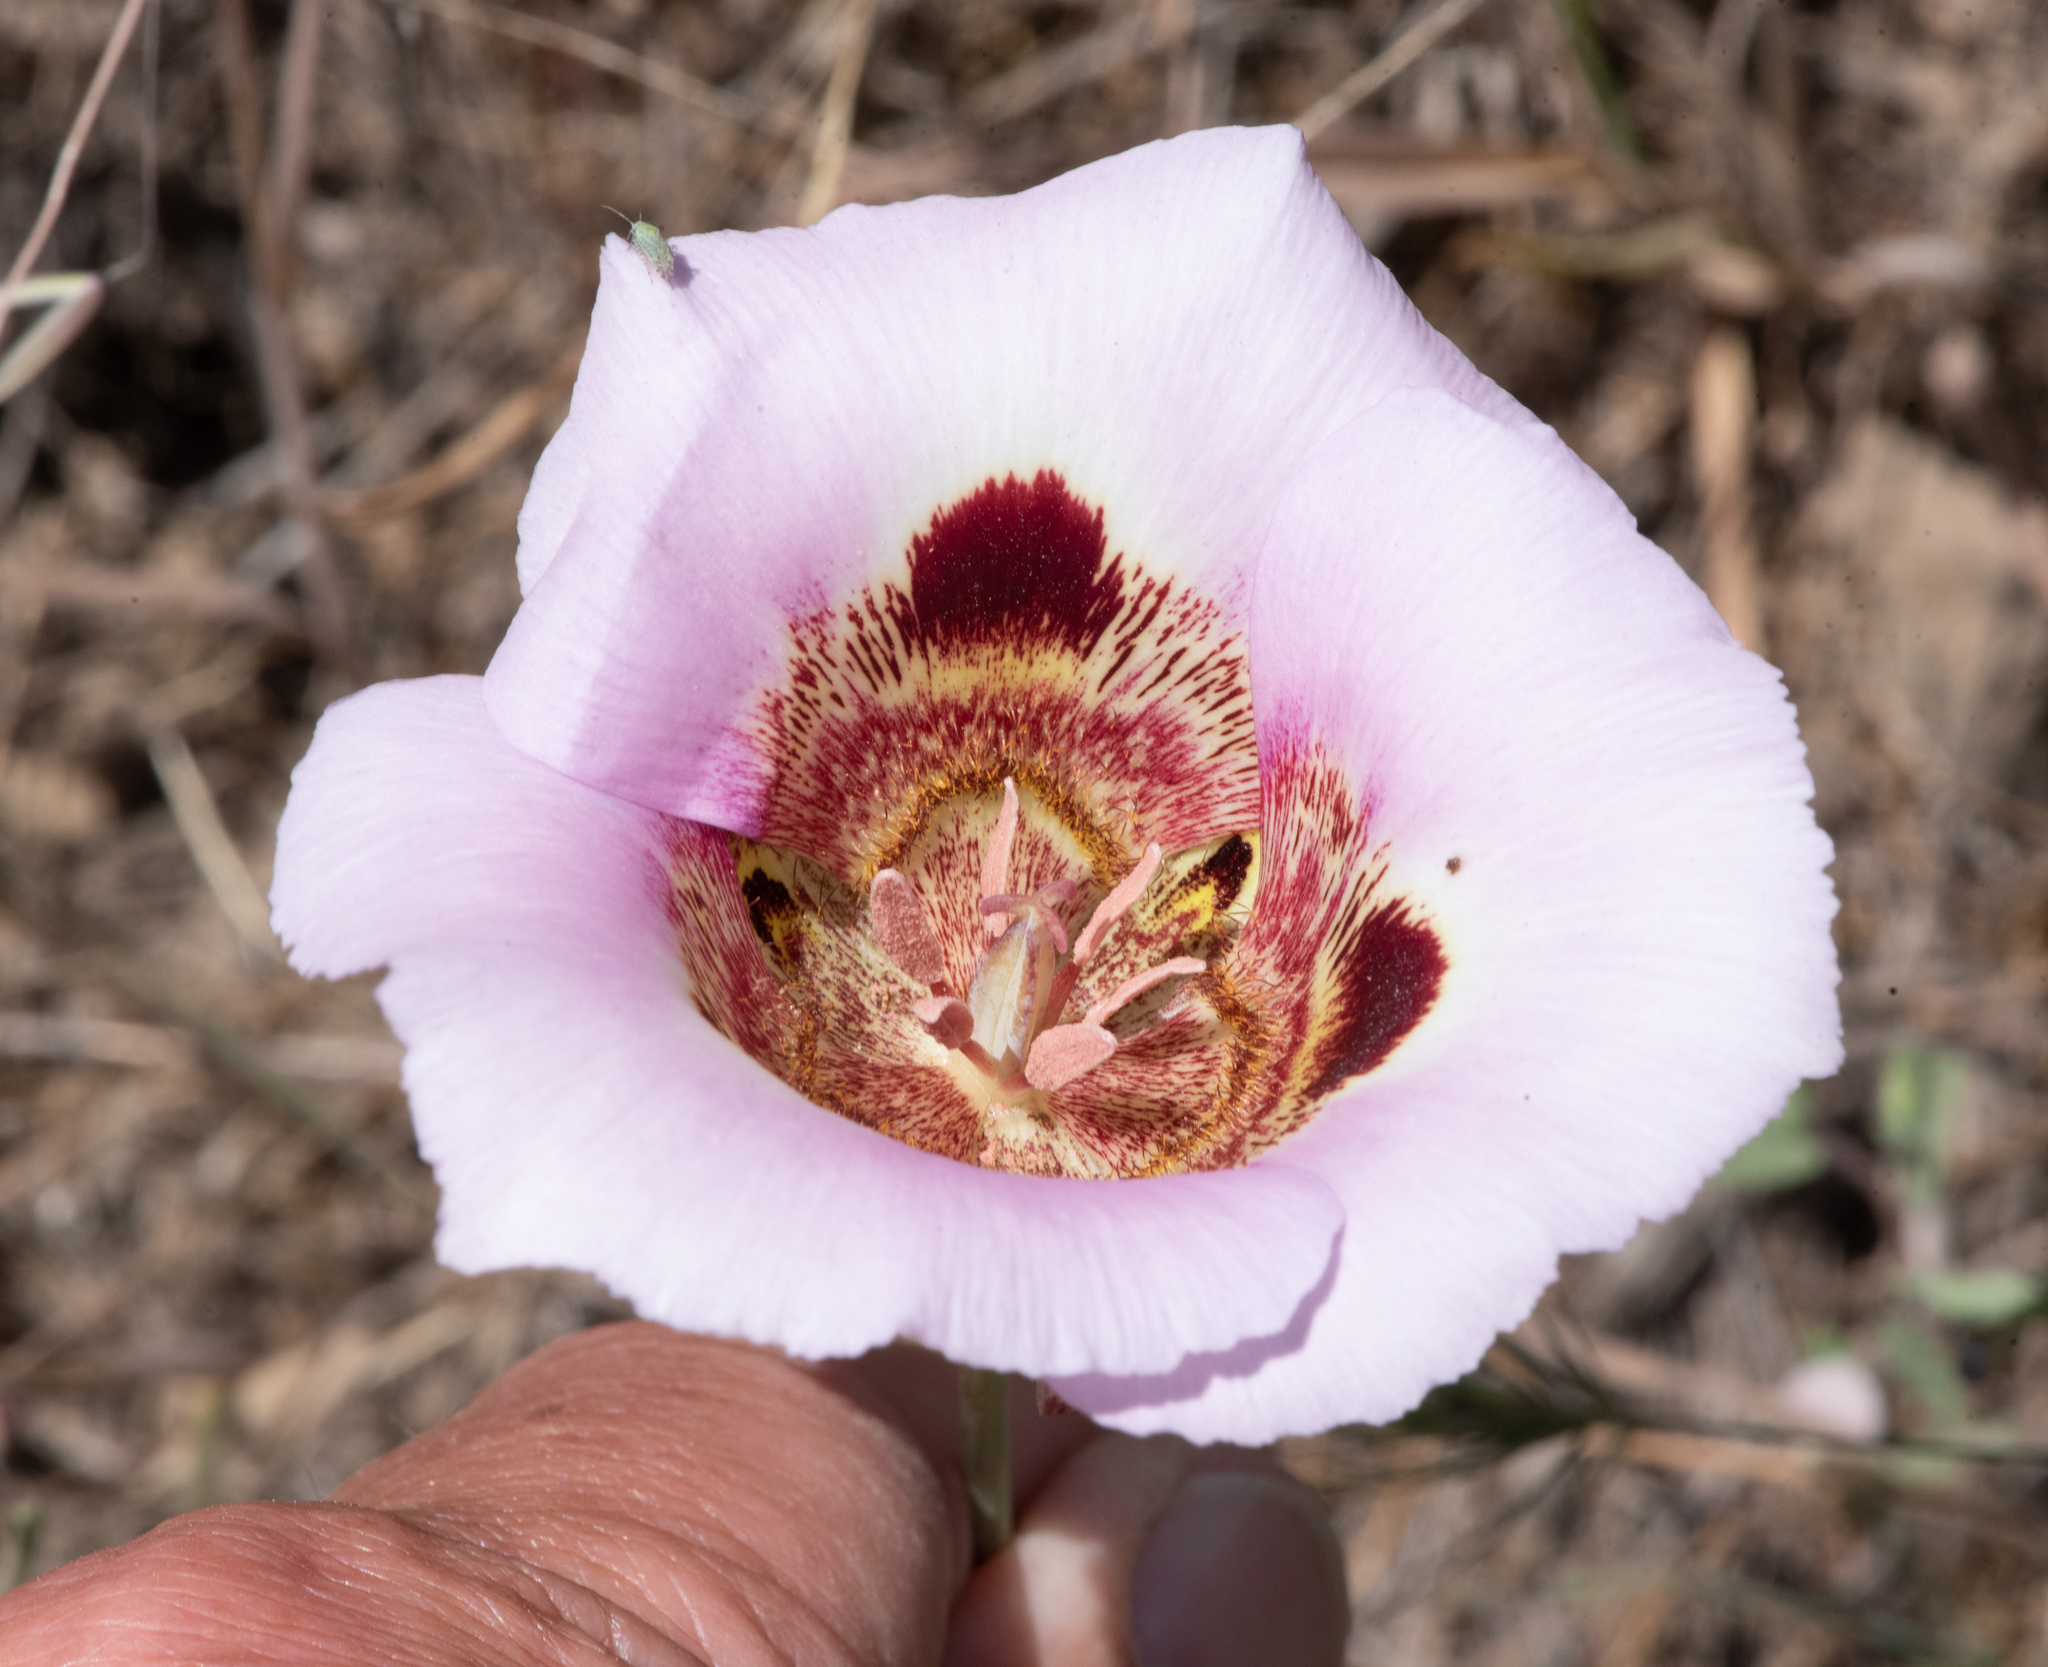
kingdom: Plantae
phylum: Tracheophyta
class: Liliopsida
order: Liliales
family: Liliaceae
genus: Calochortus
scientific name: Calochortus vestae
